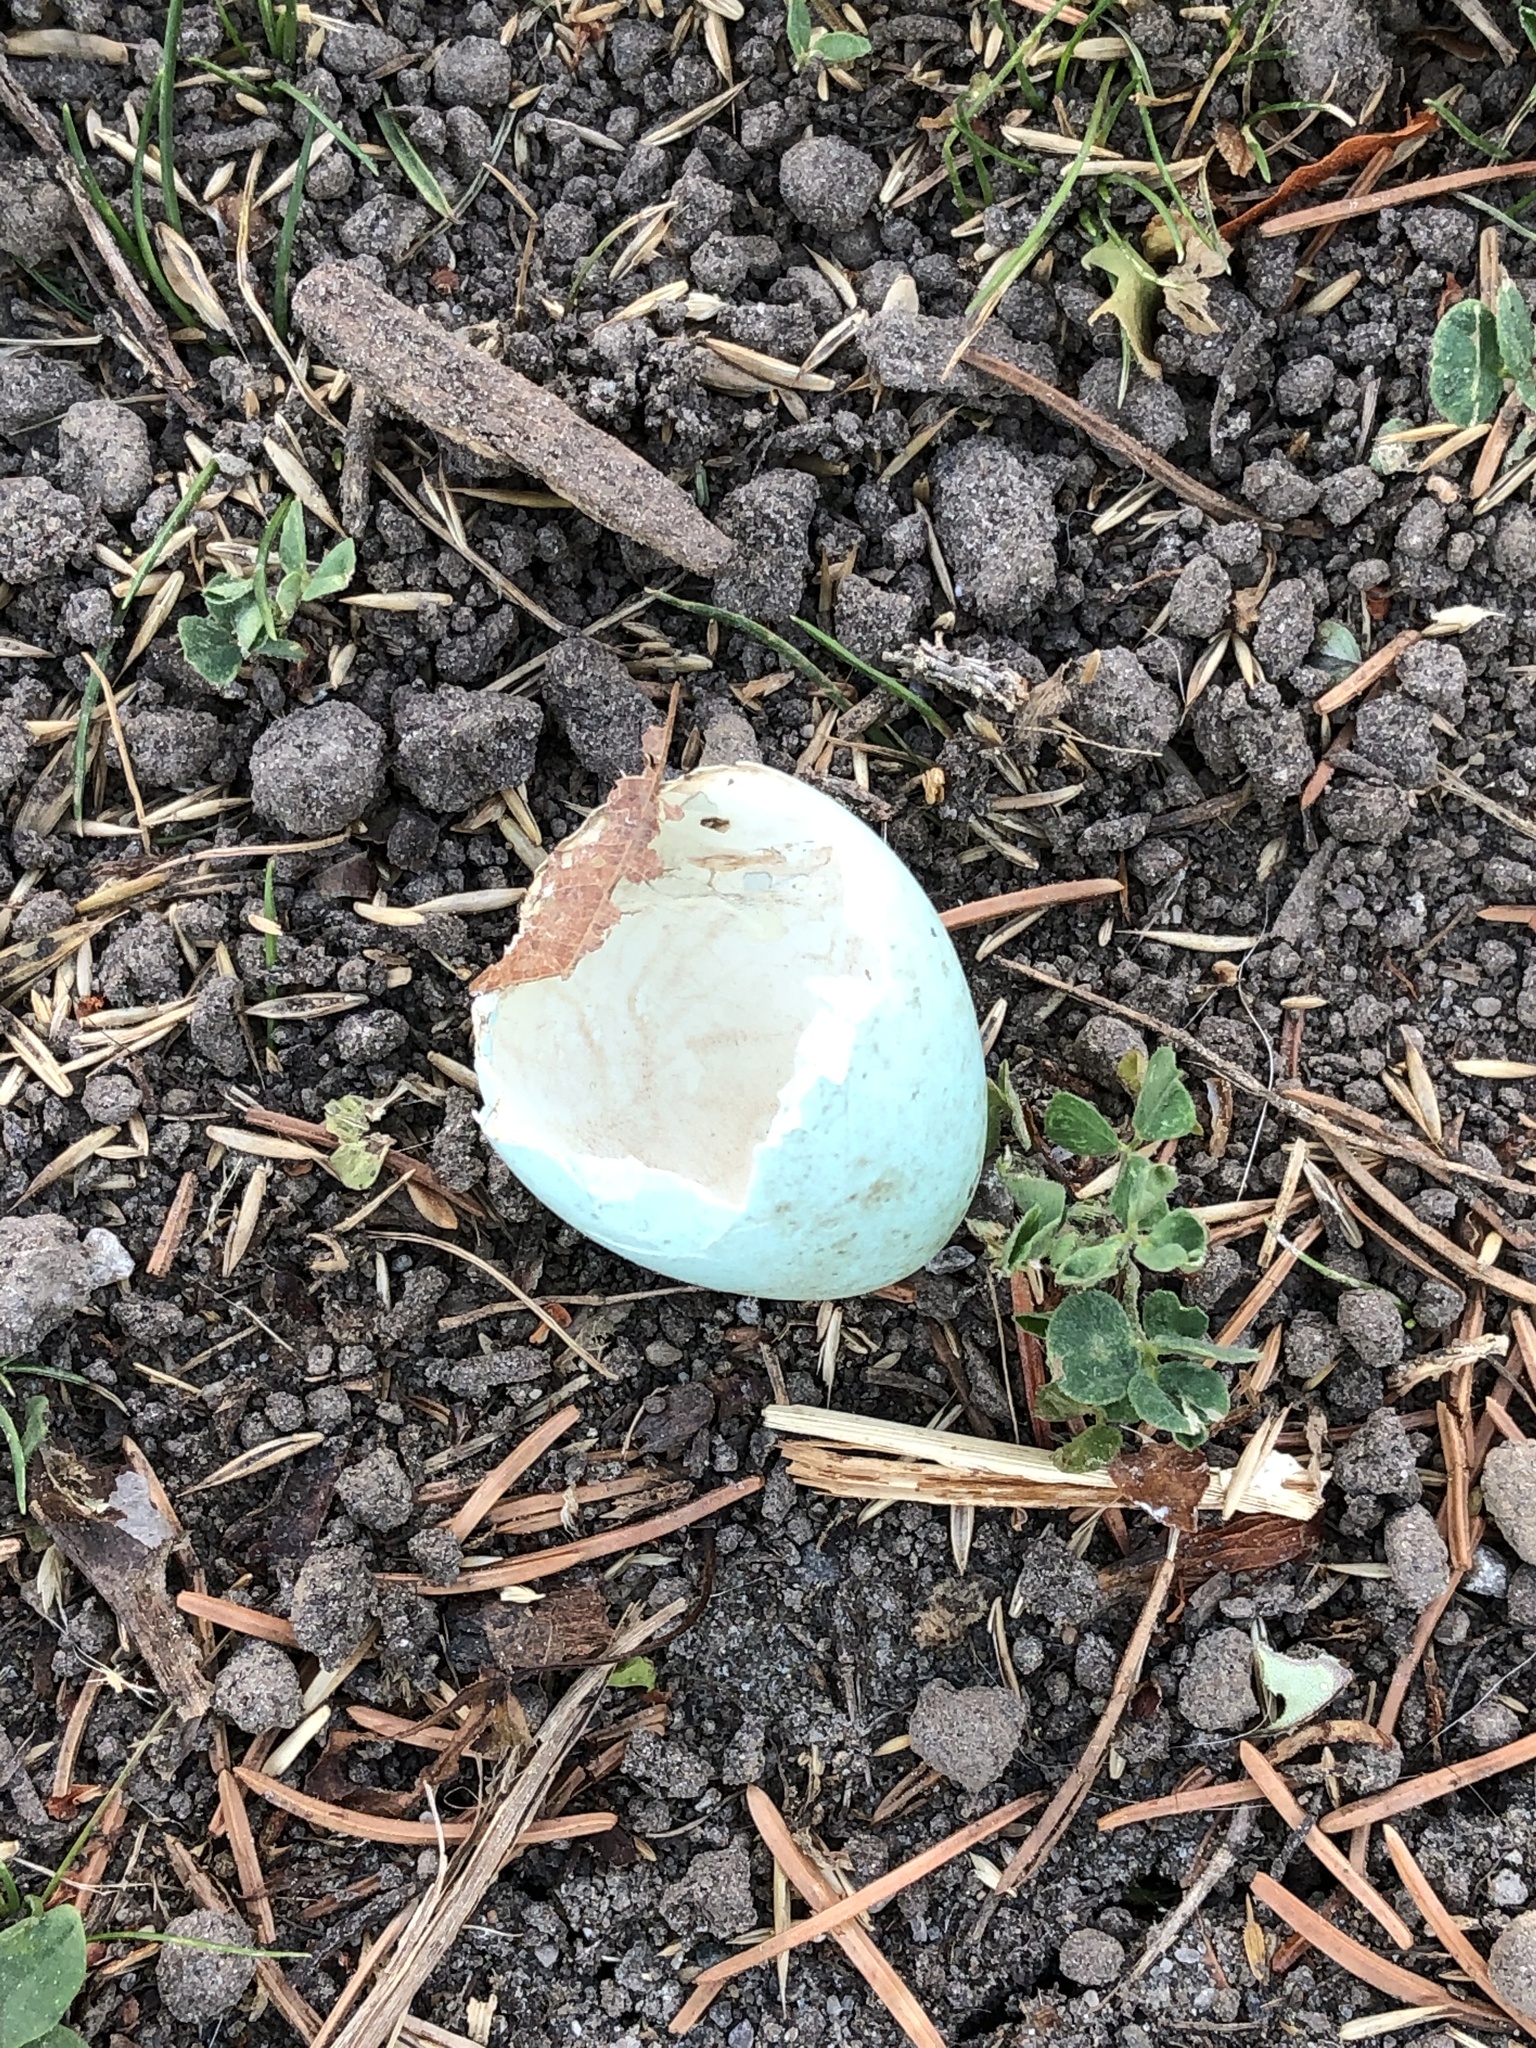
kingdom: Animalia
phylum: Chordata
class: Aves
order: Passeriformes
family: Turdidae
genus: Turdus
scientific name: Turdus migratorius
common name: American robin
